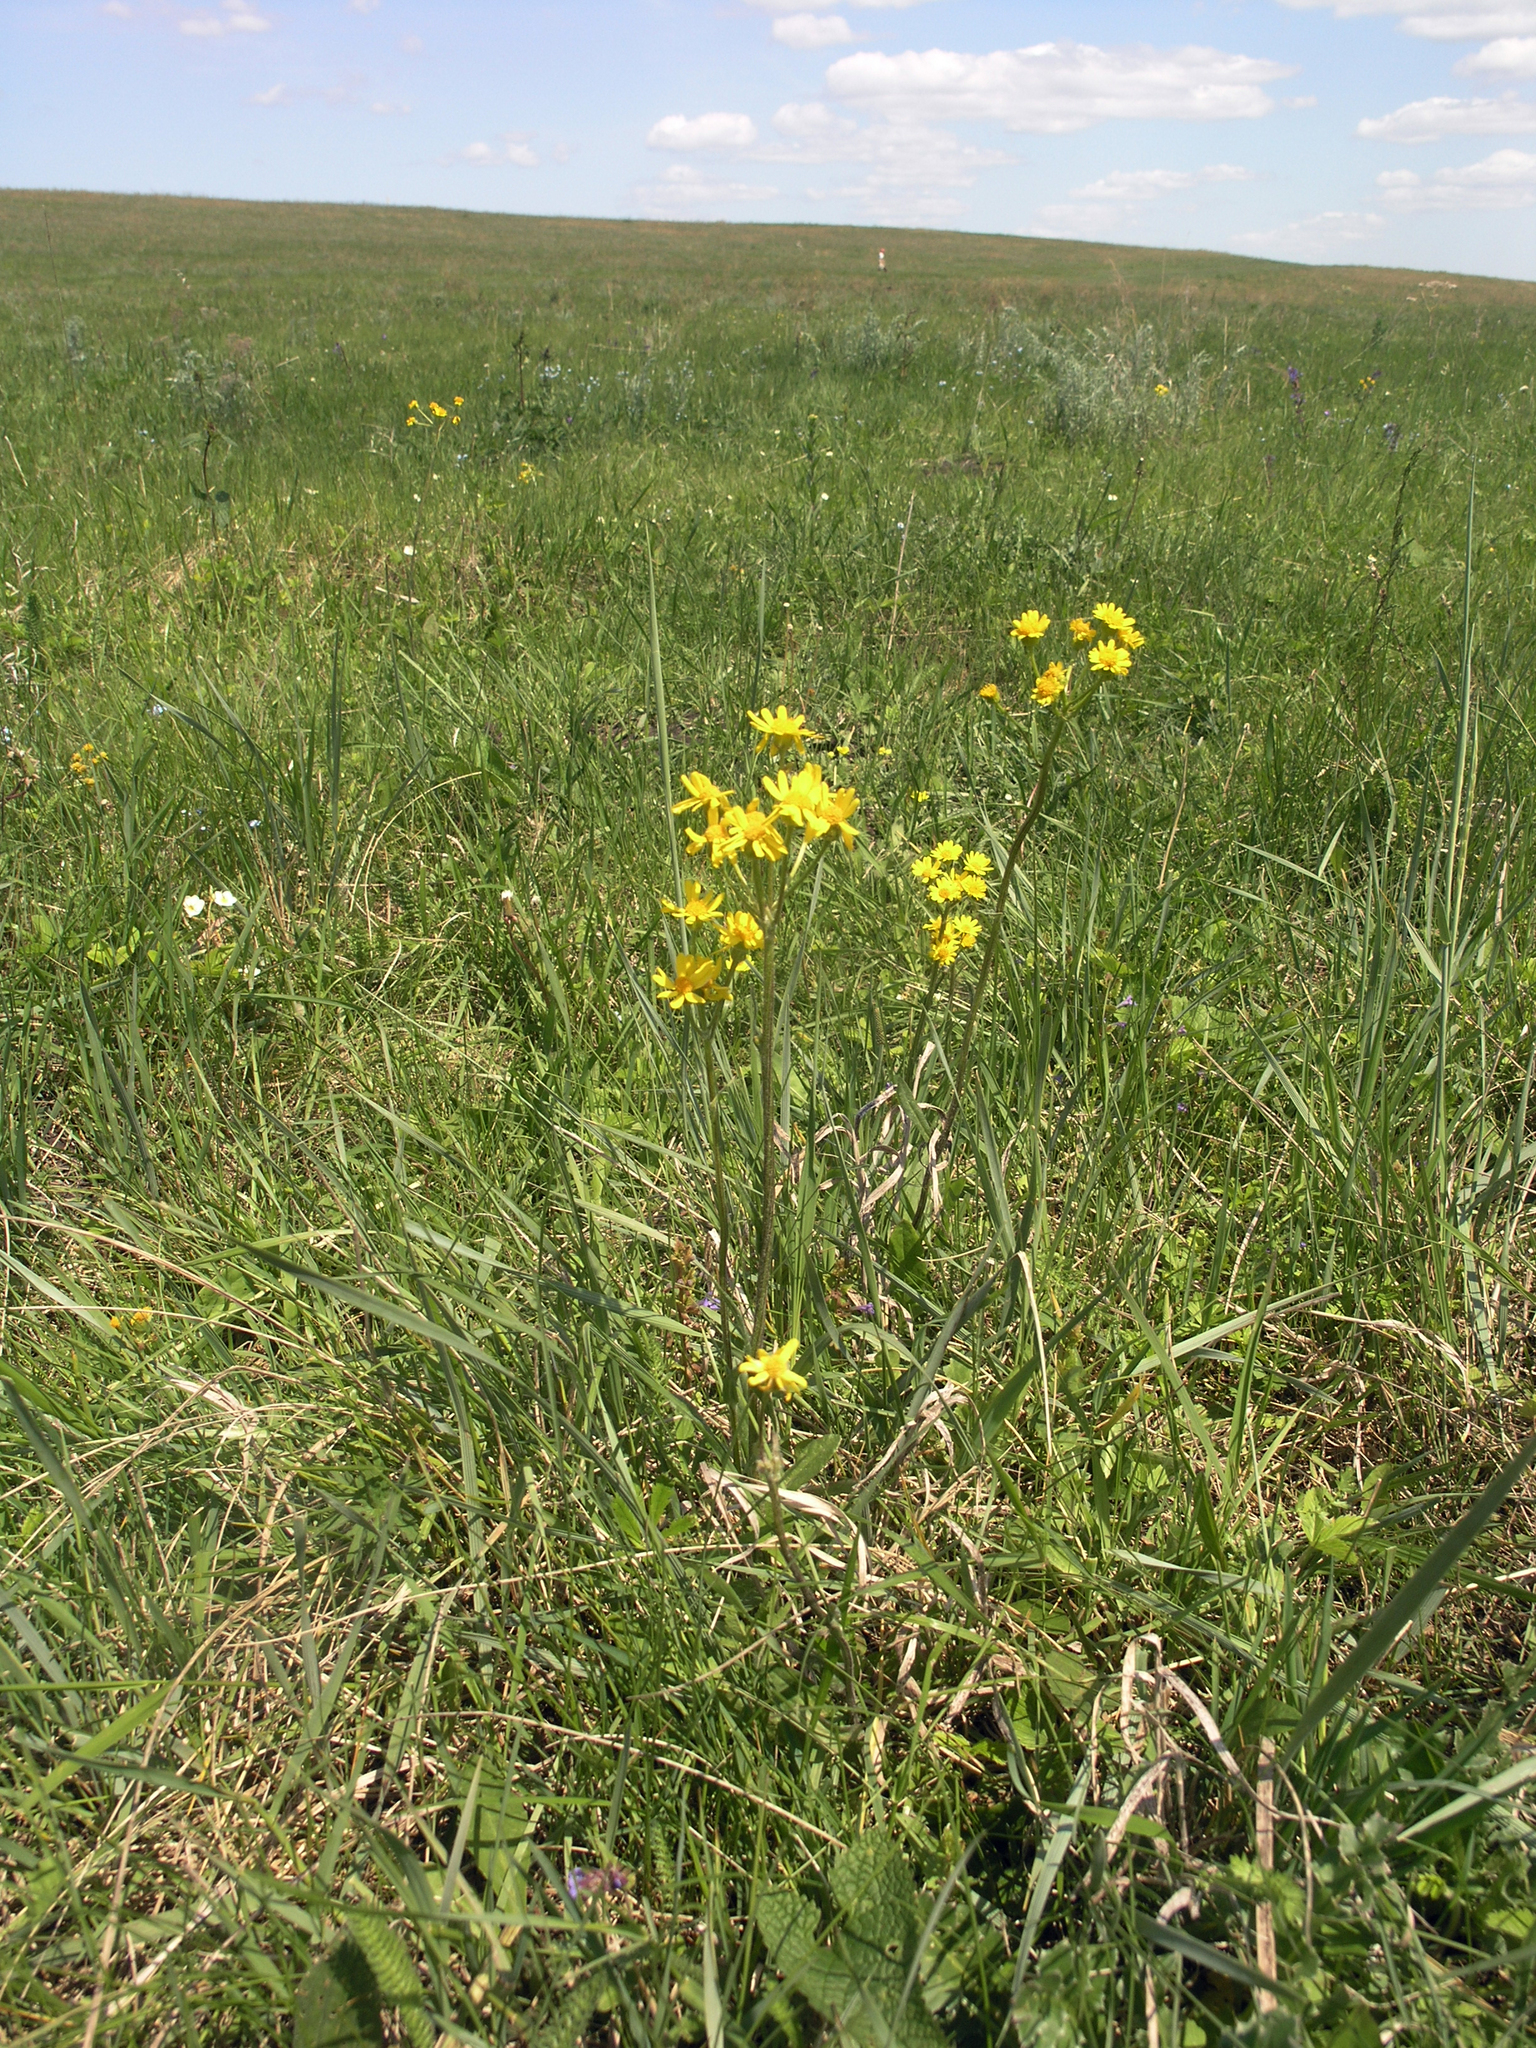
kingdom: Plantae
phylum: Tracheophyta
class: Magnoliopsida
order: Asterales
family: Asteraceae
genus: Tephroseris
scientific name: Tephroseris integrifolia
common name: Field fleawort
